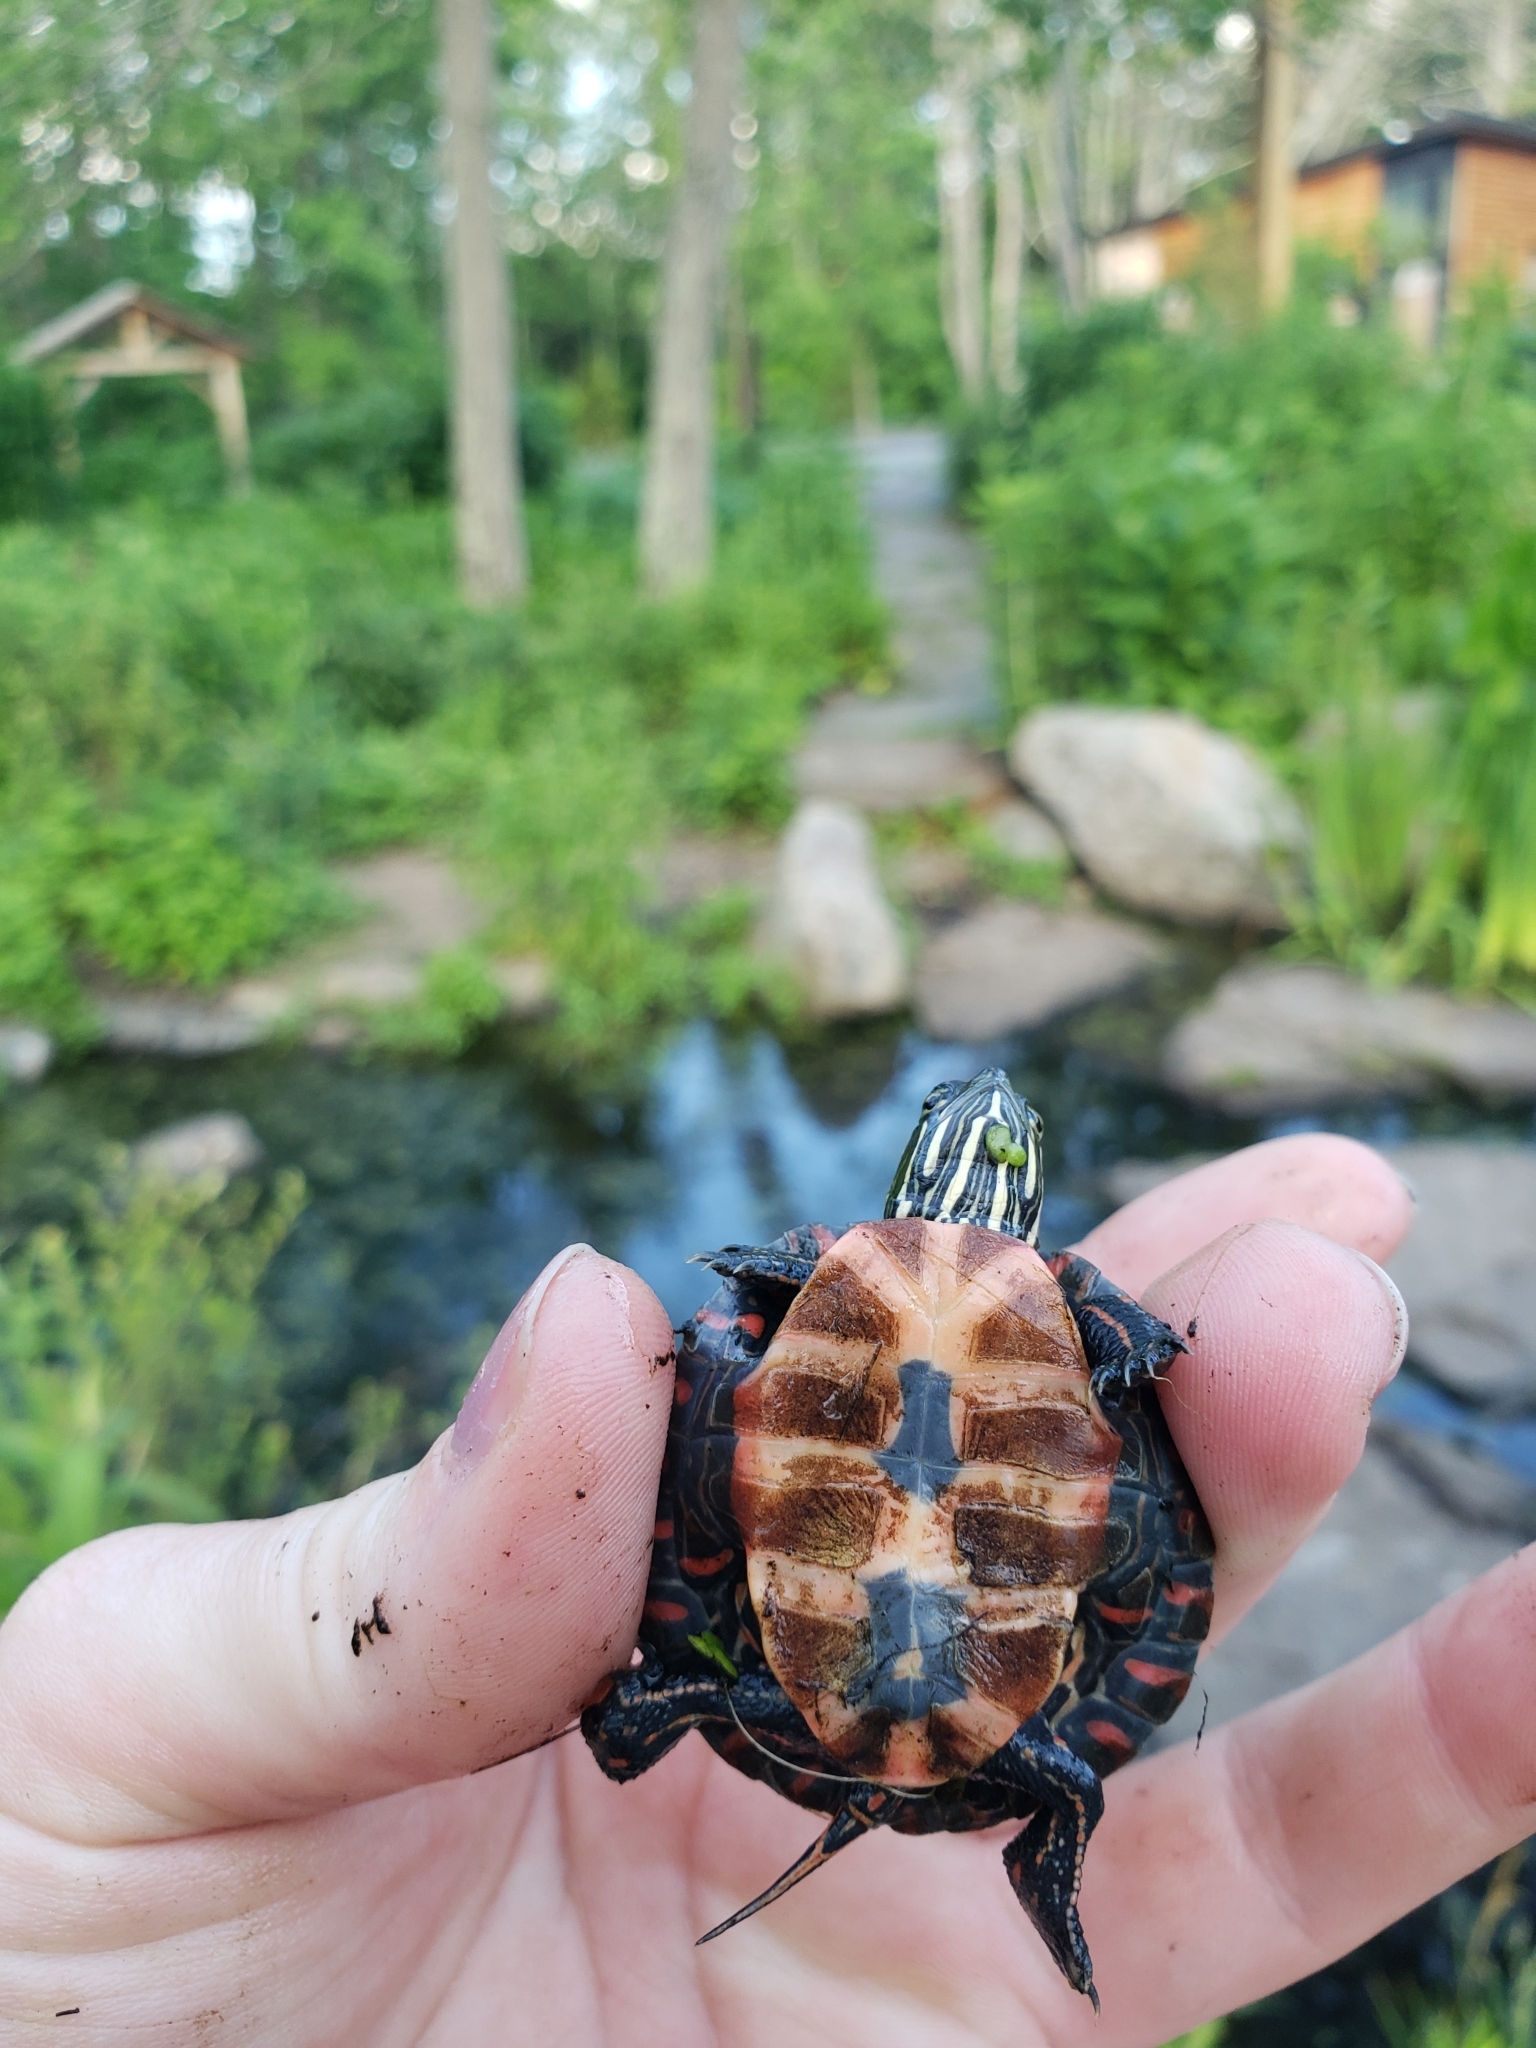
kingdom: Animalia
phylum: Chordata
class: Testudines
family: Emydidae
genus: Chrysemys
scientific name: Chrysemys picta
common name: Painted turtle
